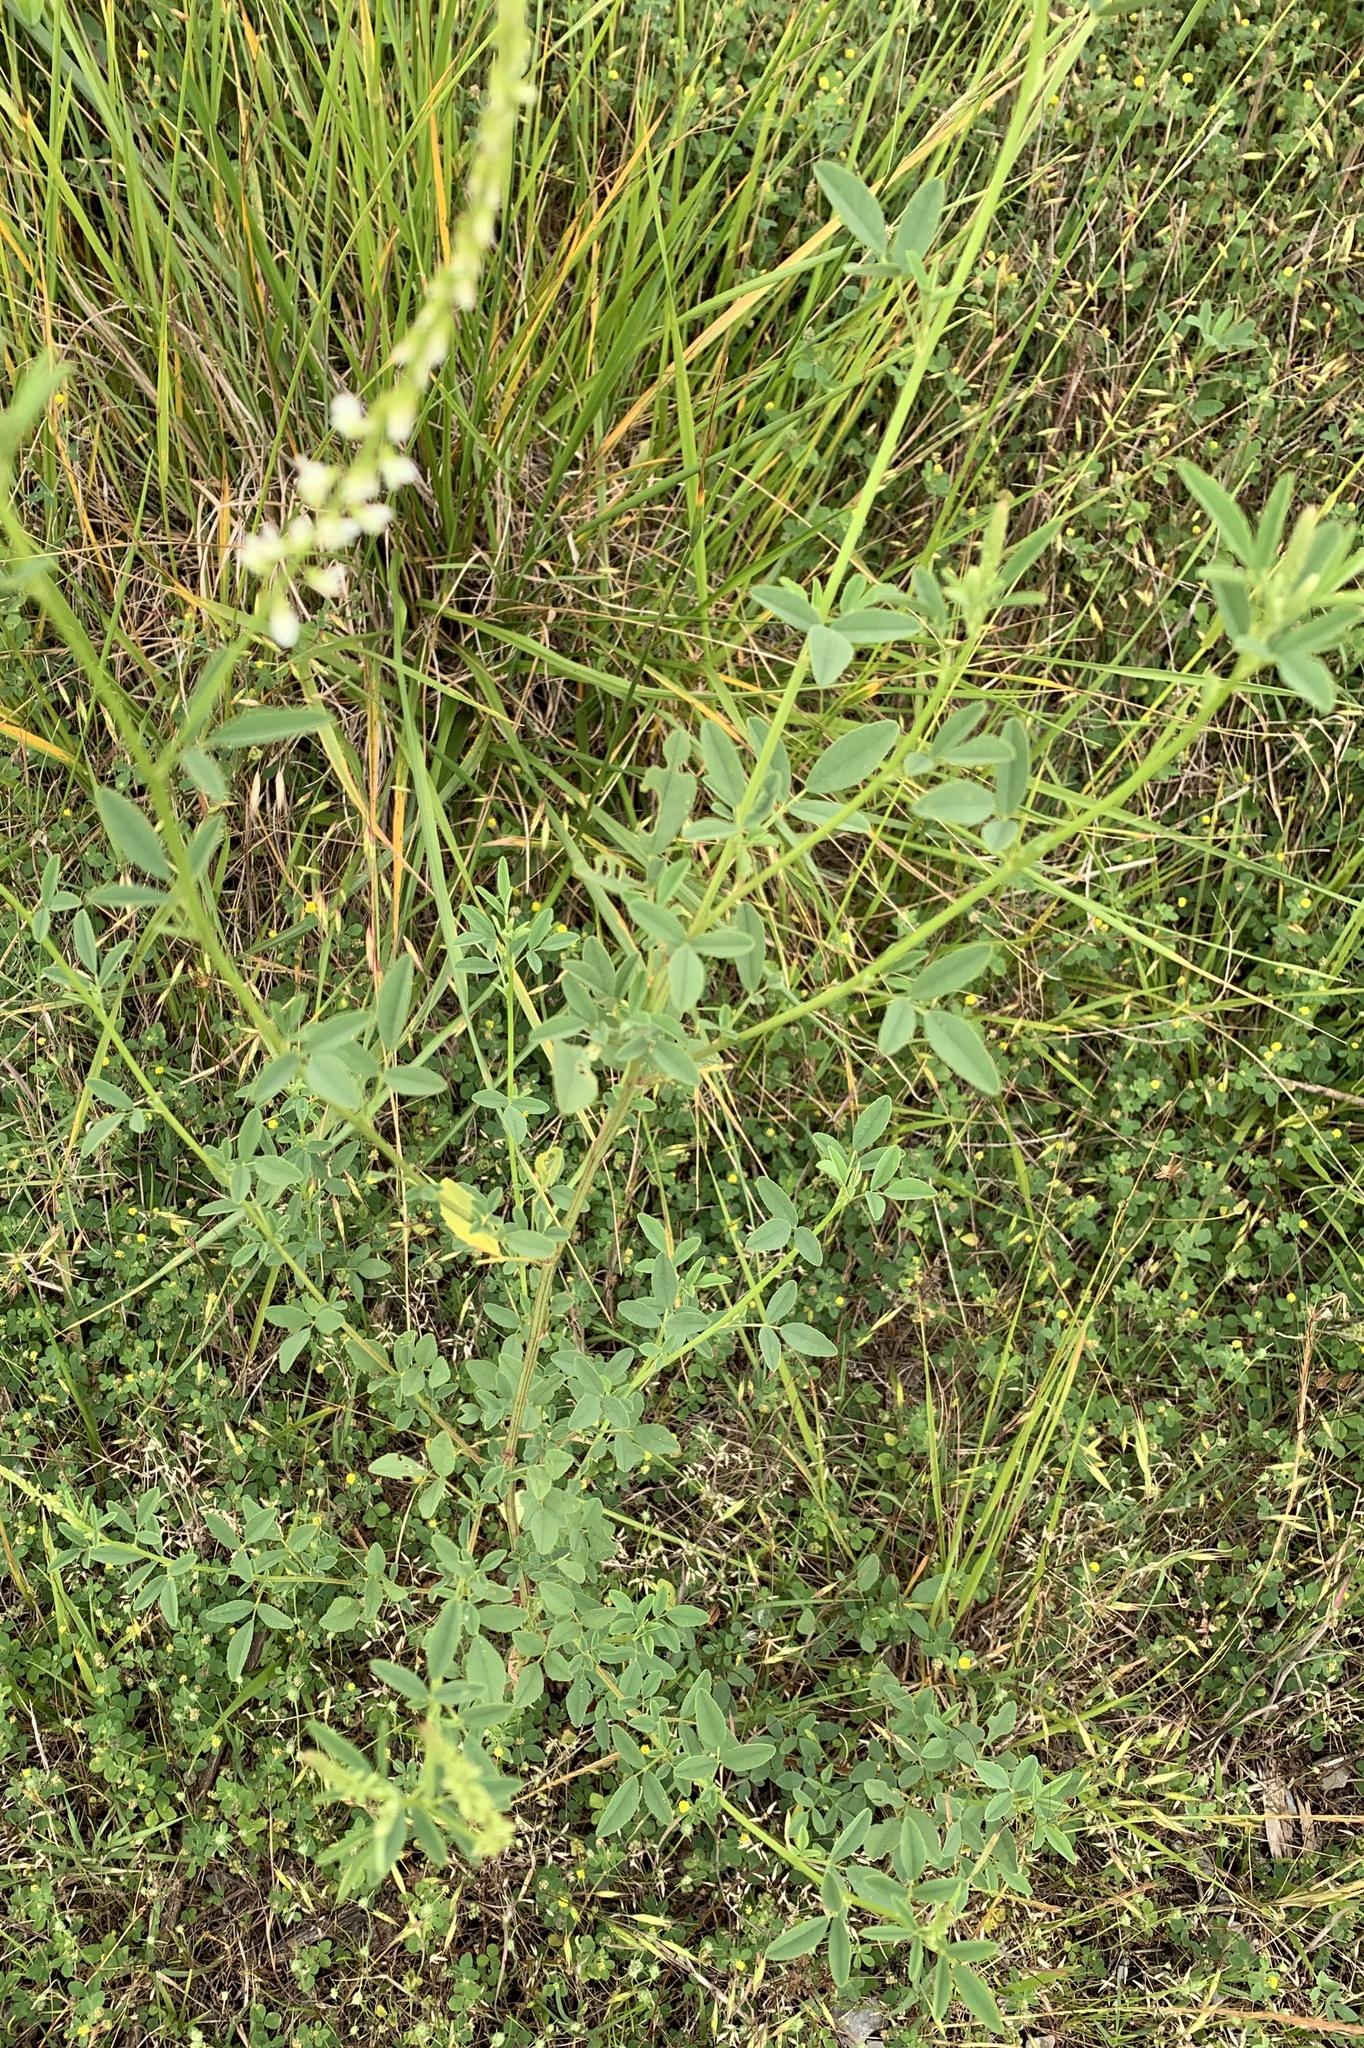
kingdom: Plantae
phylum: Tracheophyta
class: Magnoliopsida
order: Fabales
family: Fabaceae
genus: Melilotus
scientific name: Melilotus albus
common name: White melilot
